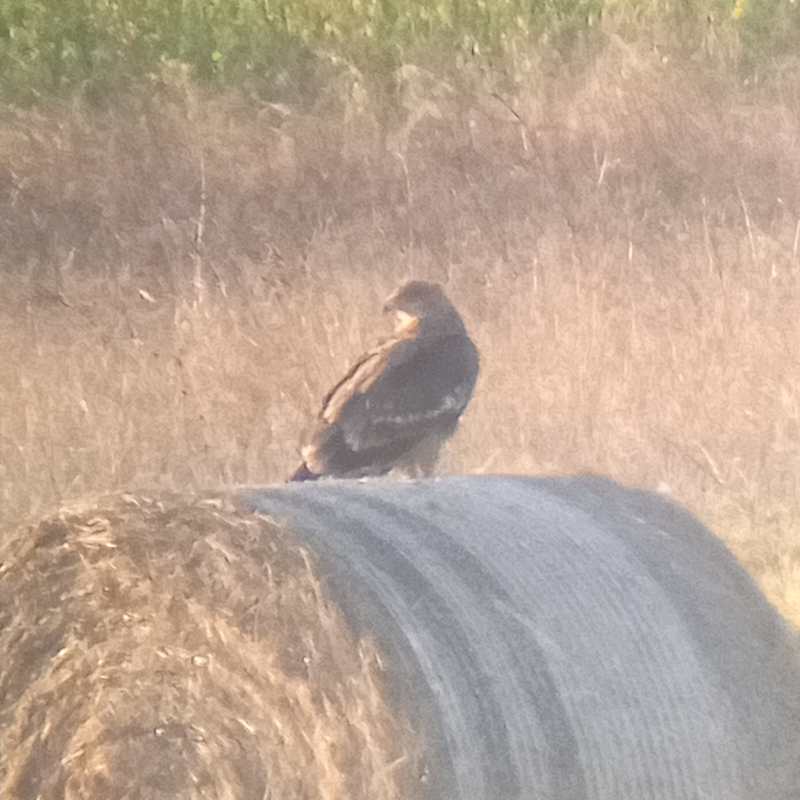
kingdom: Animalia
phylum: Chordata
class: Aves
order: Accipitriformes
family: Accipitridae
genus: Aquila
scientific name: Aquila heliaca
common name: Eastern imperial eagle
